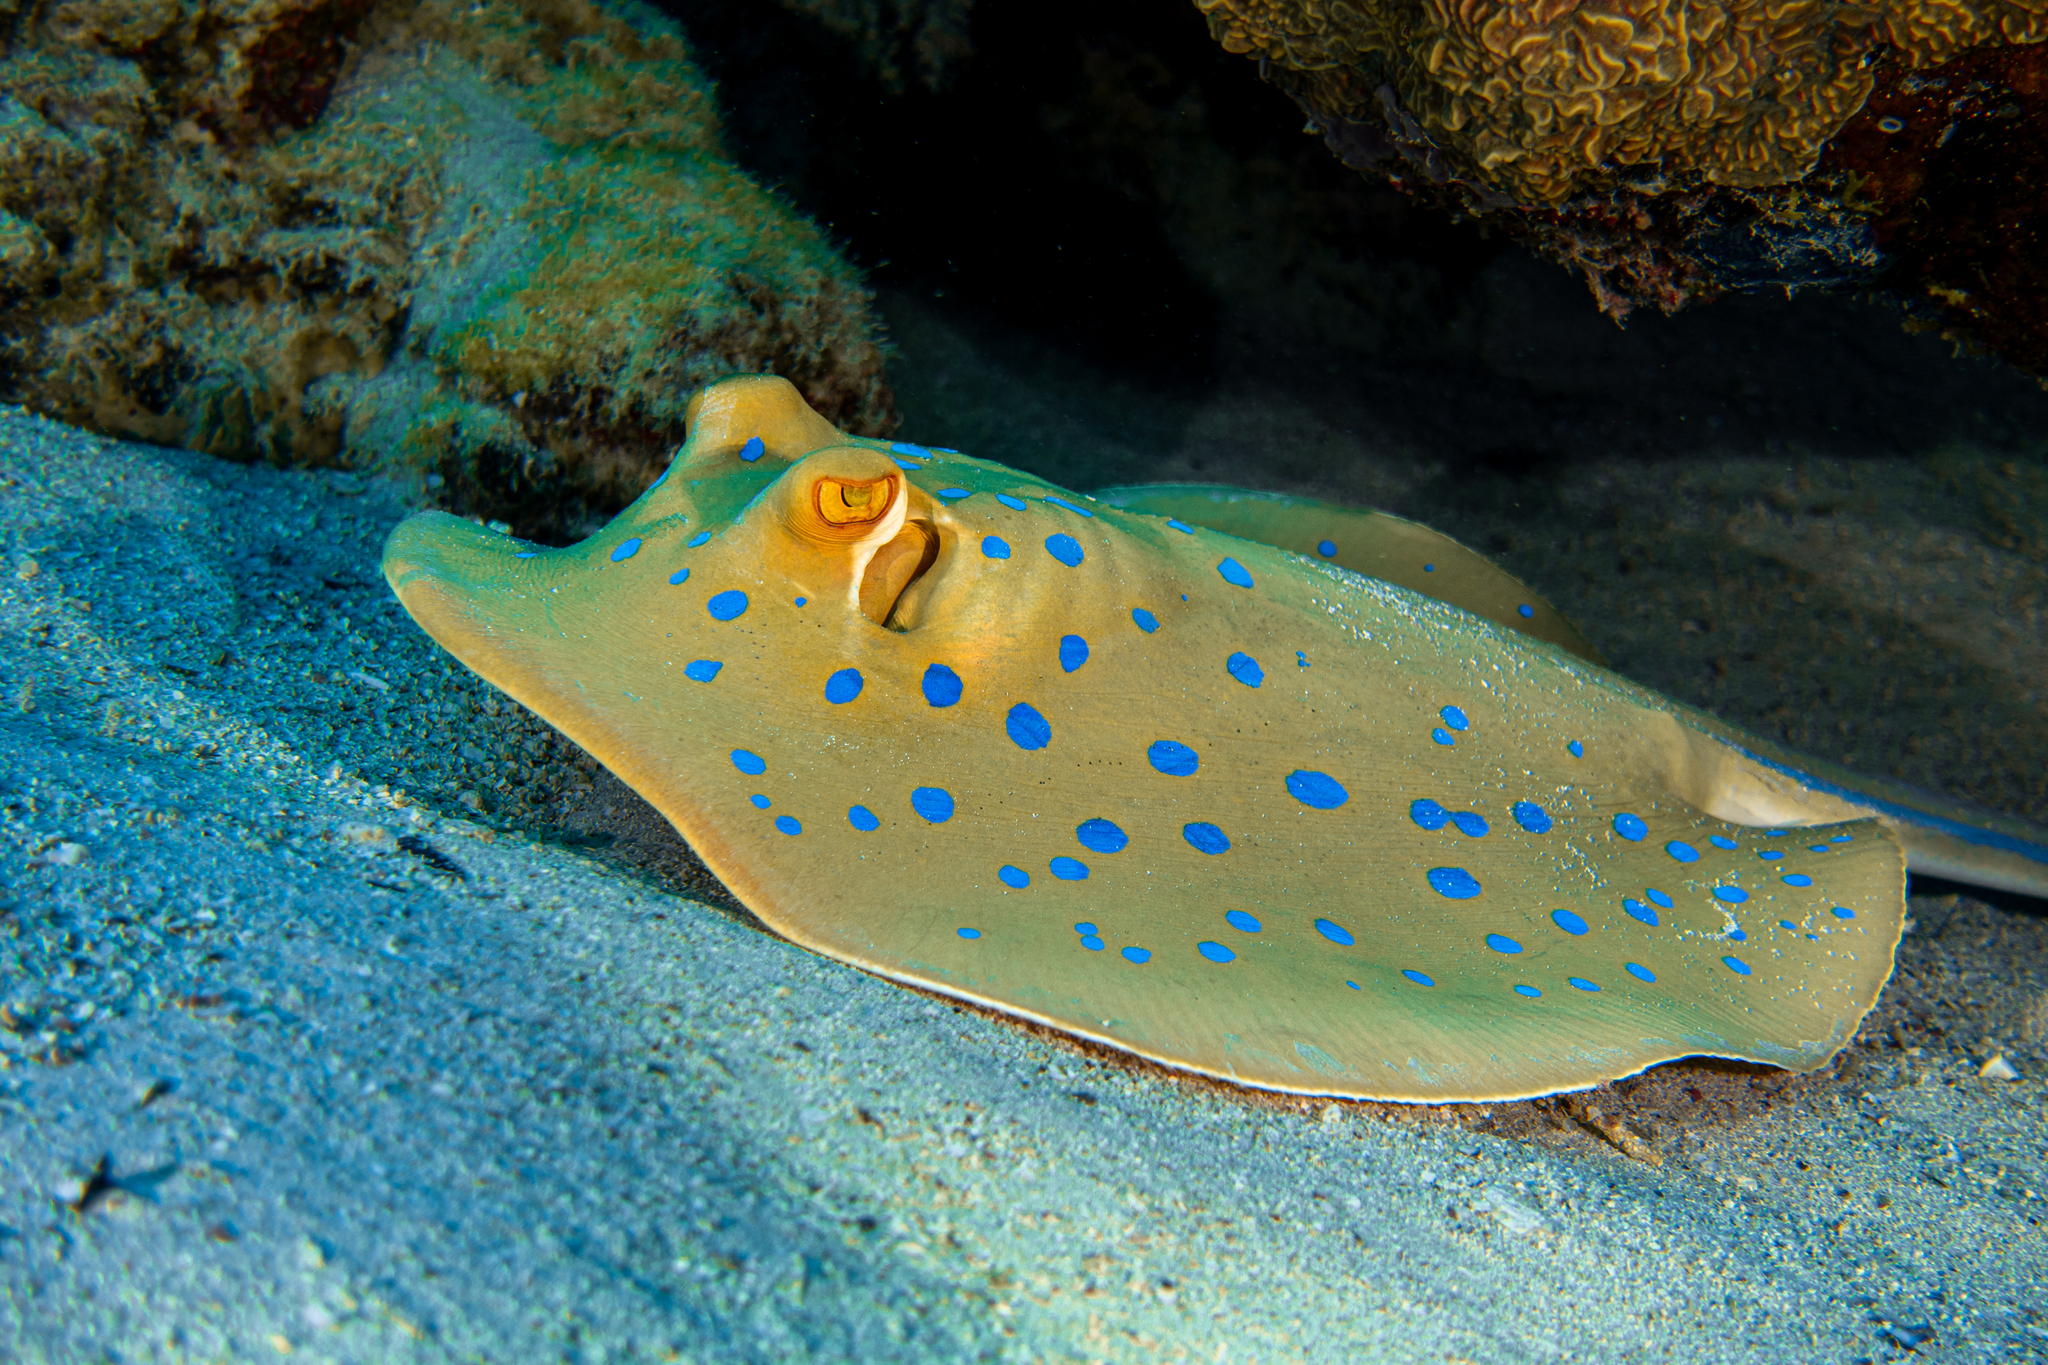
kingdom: Animalia
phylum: Chordata
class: Elasmobranchii
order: Myliobatiformes
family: Dasyatidae
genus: Taeniura
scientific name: Taeniura lymma
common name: Bluespotted ribbontail ray
